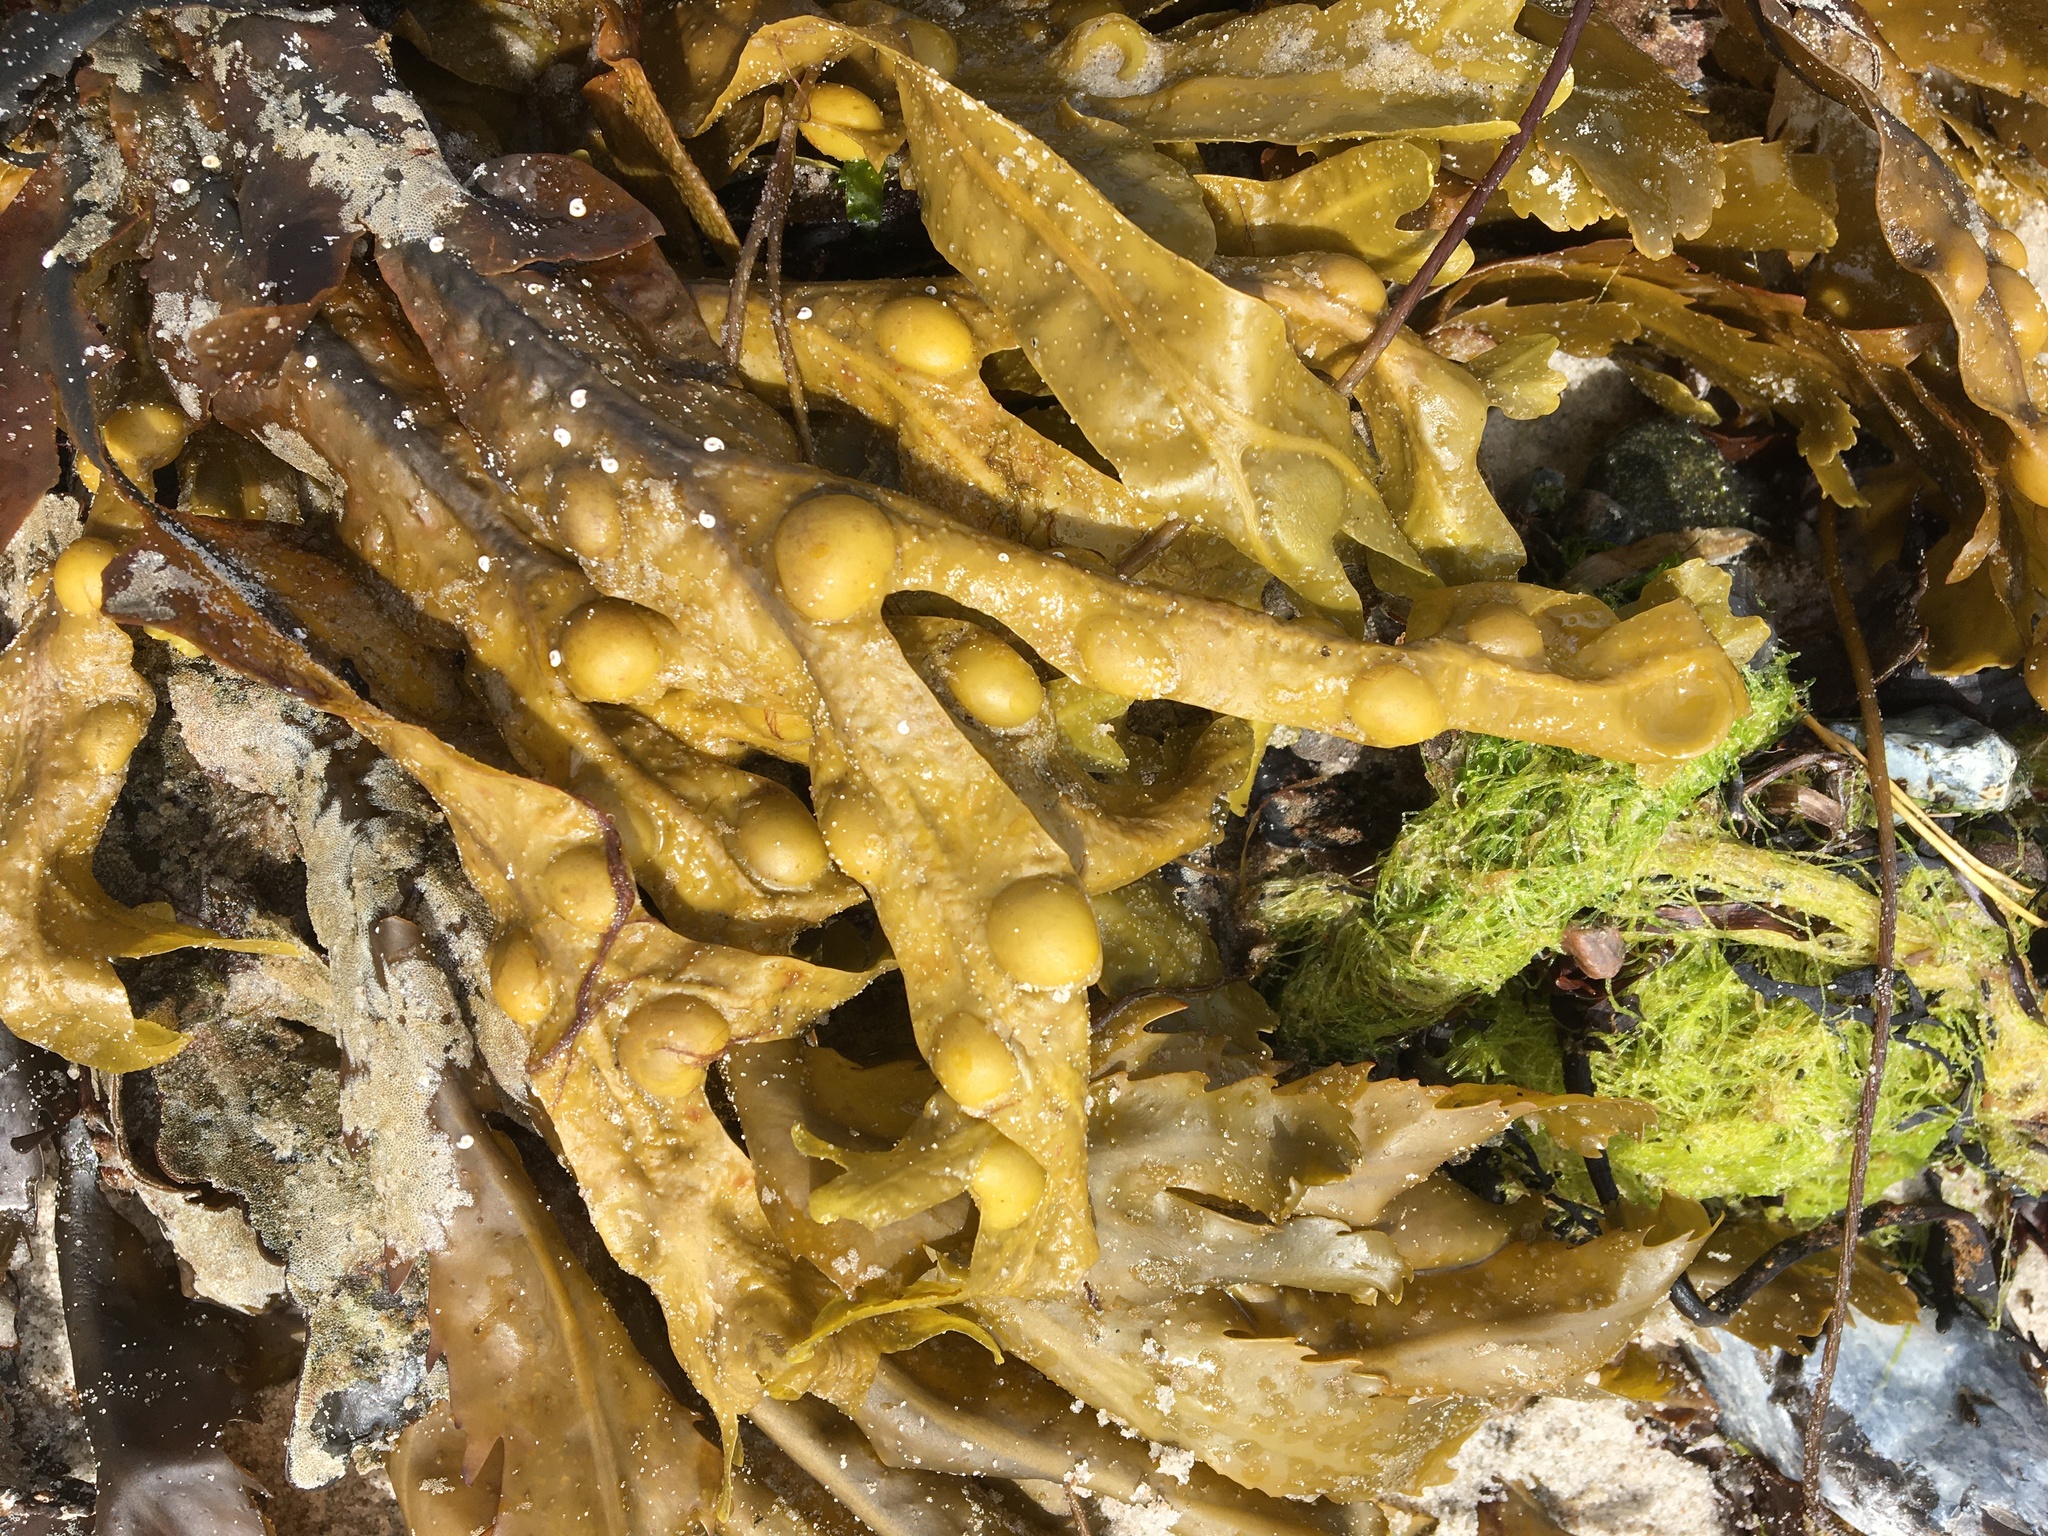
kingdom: Chromista
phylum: Ochrophyta
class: Phaeophyceae
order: Fucales
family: Fucaceae
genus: Fucus
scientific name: Fucus vesiculosus
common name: Bladder wrack
